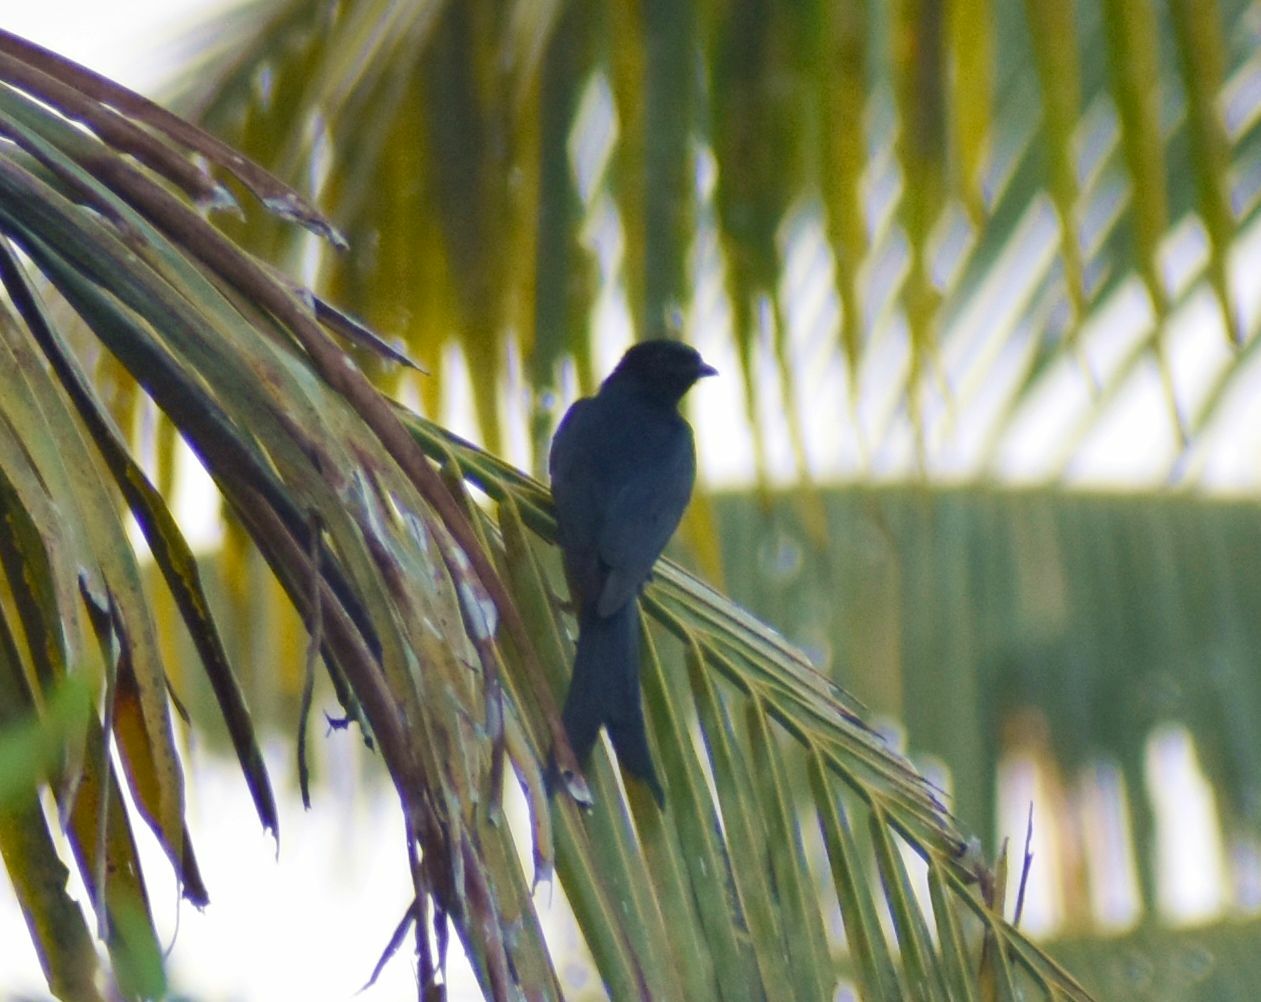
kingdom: Animalia
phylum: Chordata
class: Aves
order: Passeriformes
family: Dicruridae
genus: Dicrurus
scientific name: Dicrurus macrocercus
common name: Black drongo
